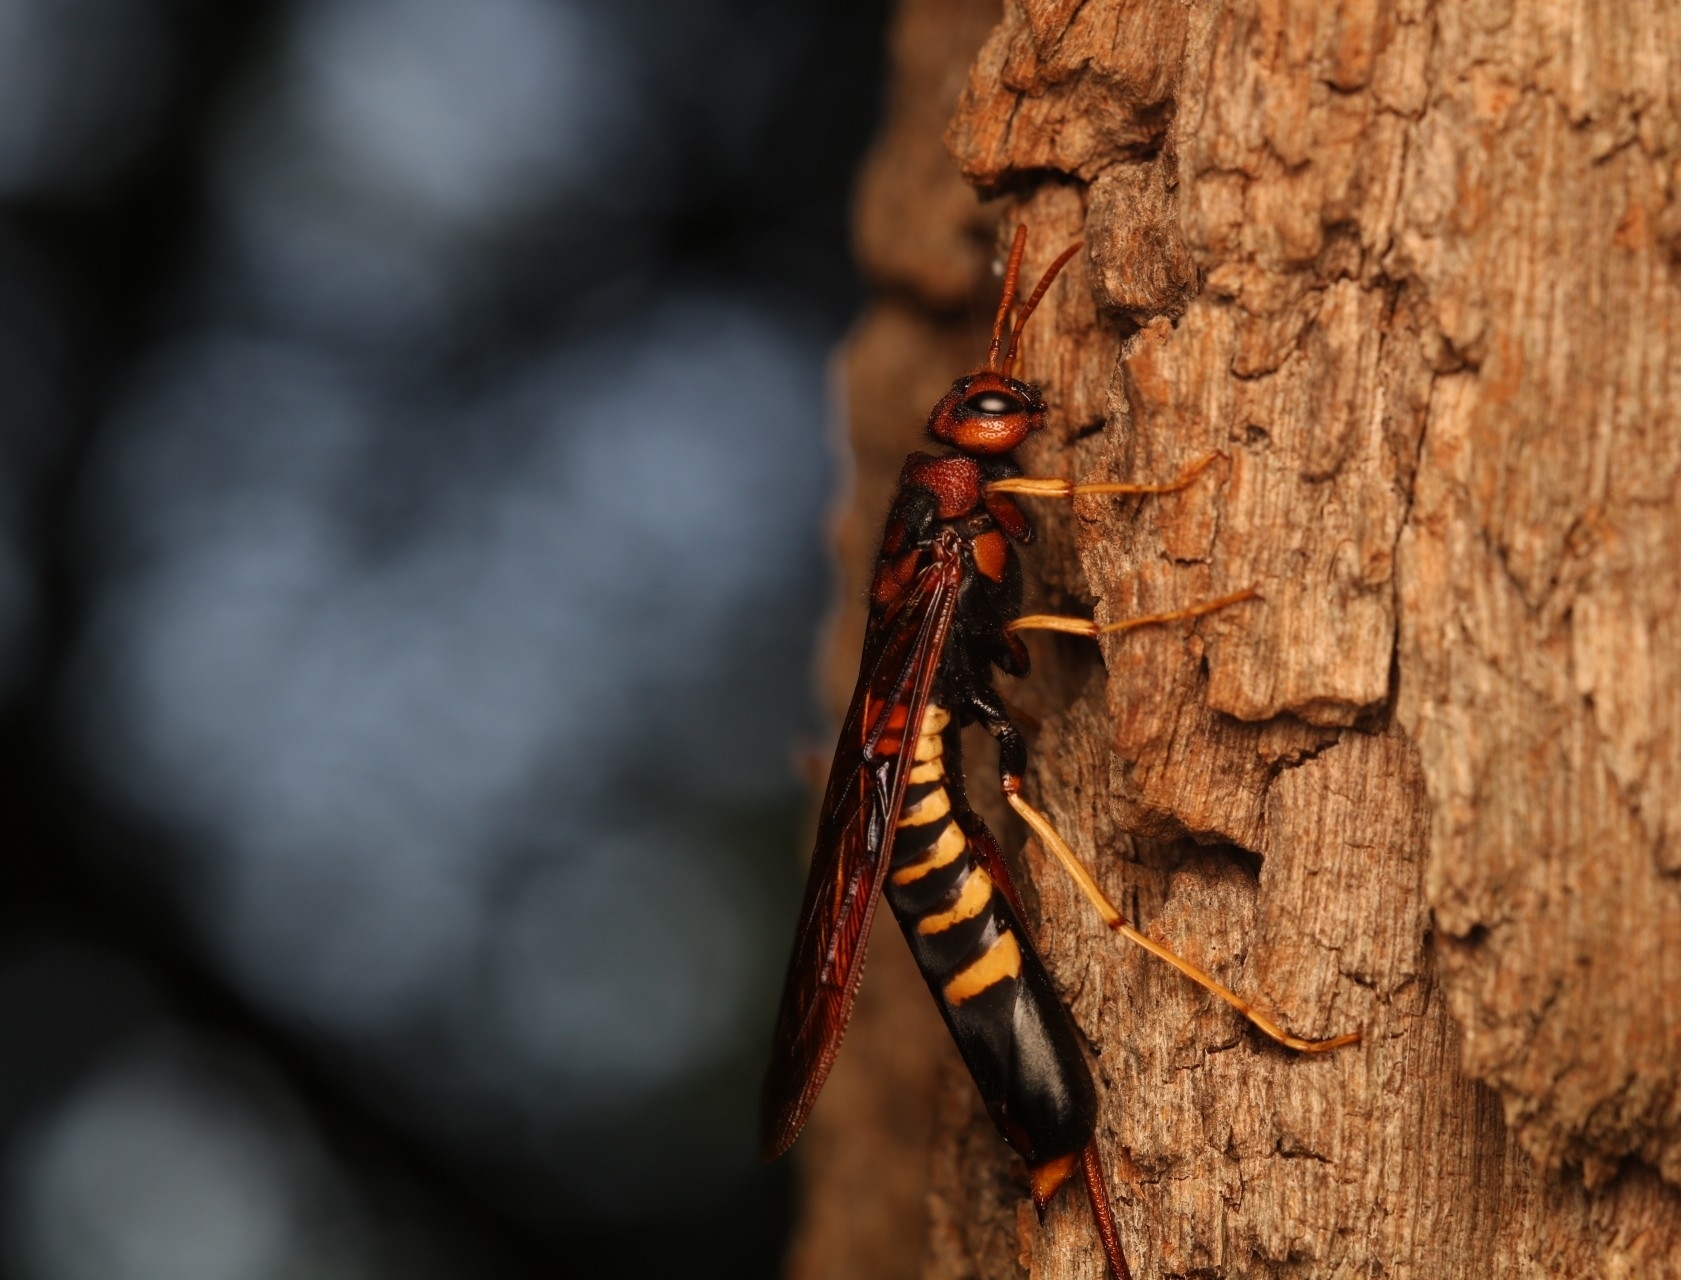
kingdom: Animalia
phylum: Arthropoda
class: Insecta
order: Hymenoptera
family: Siricidae
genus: Tremex
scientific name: Tremex columba
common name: Wasp
